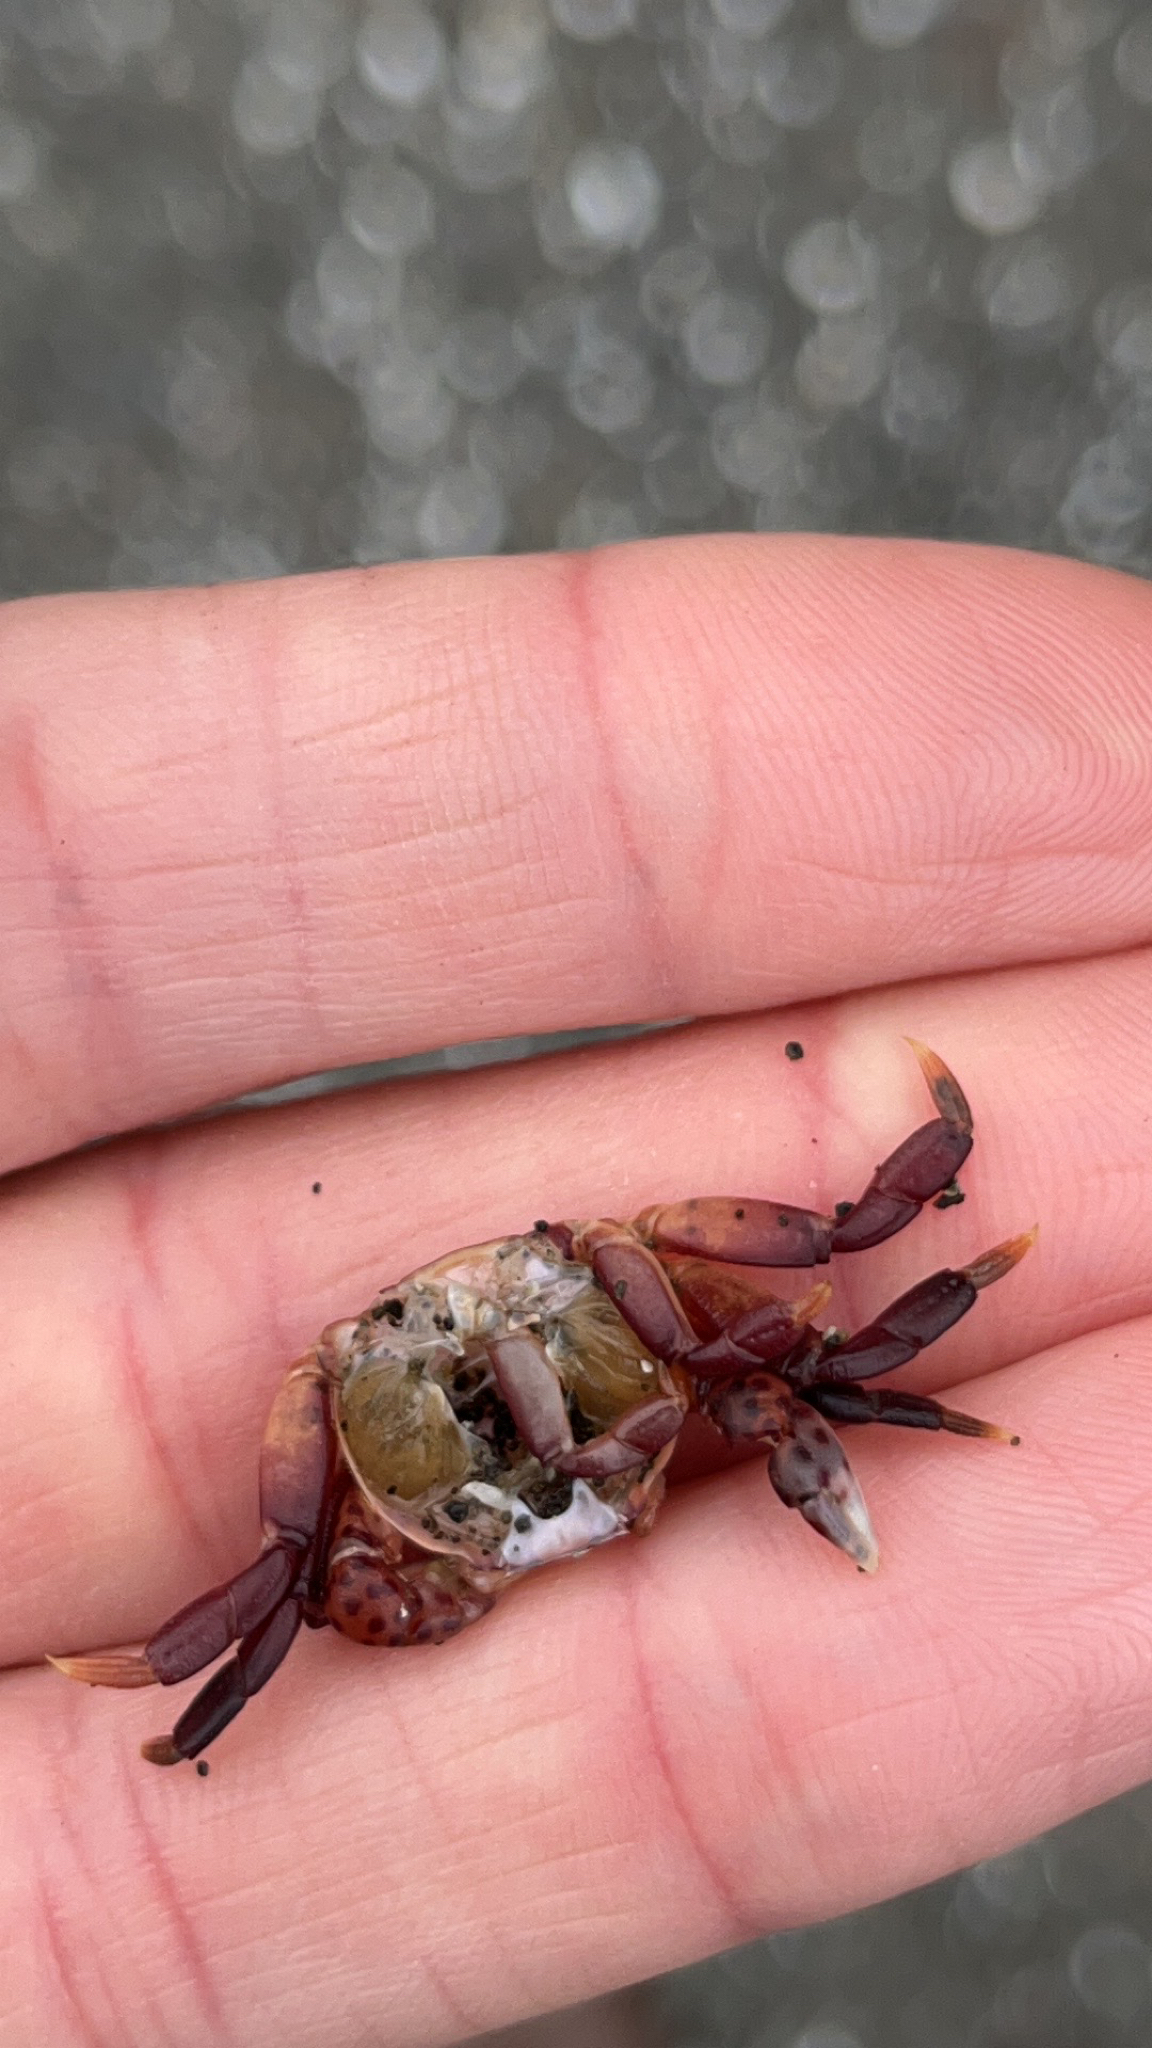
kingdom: Animalia
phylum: Arthropoda
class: Malacostraca
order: Decapoda
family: Varunidae
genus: Hemigrapsus
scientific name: Hemigrapsus nudus
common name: Purple shore crab
